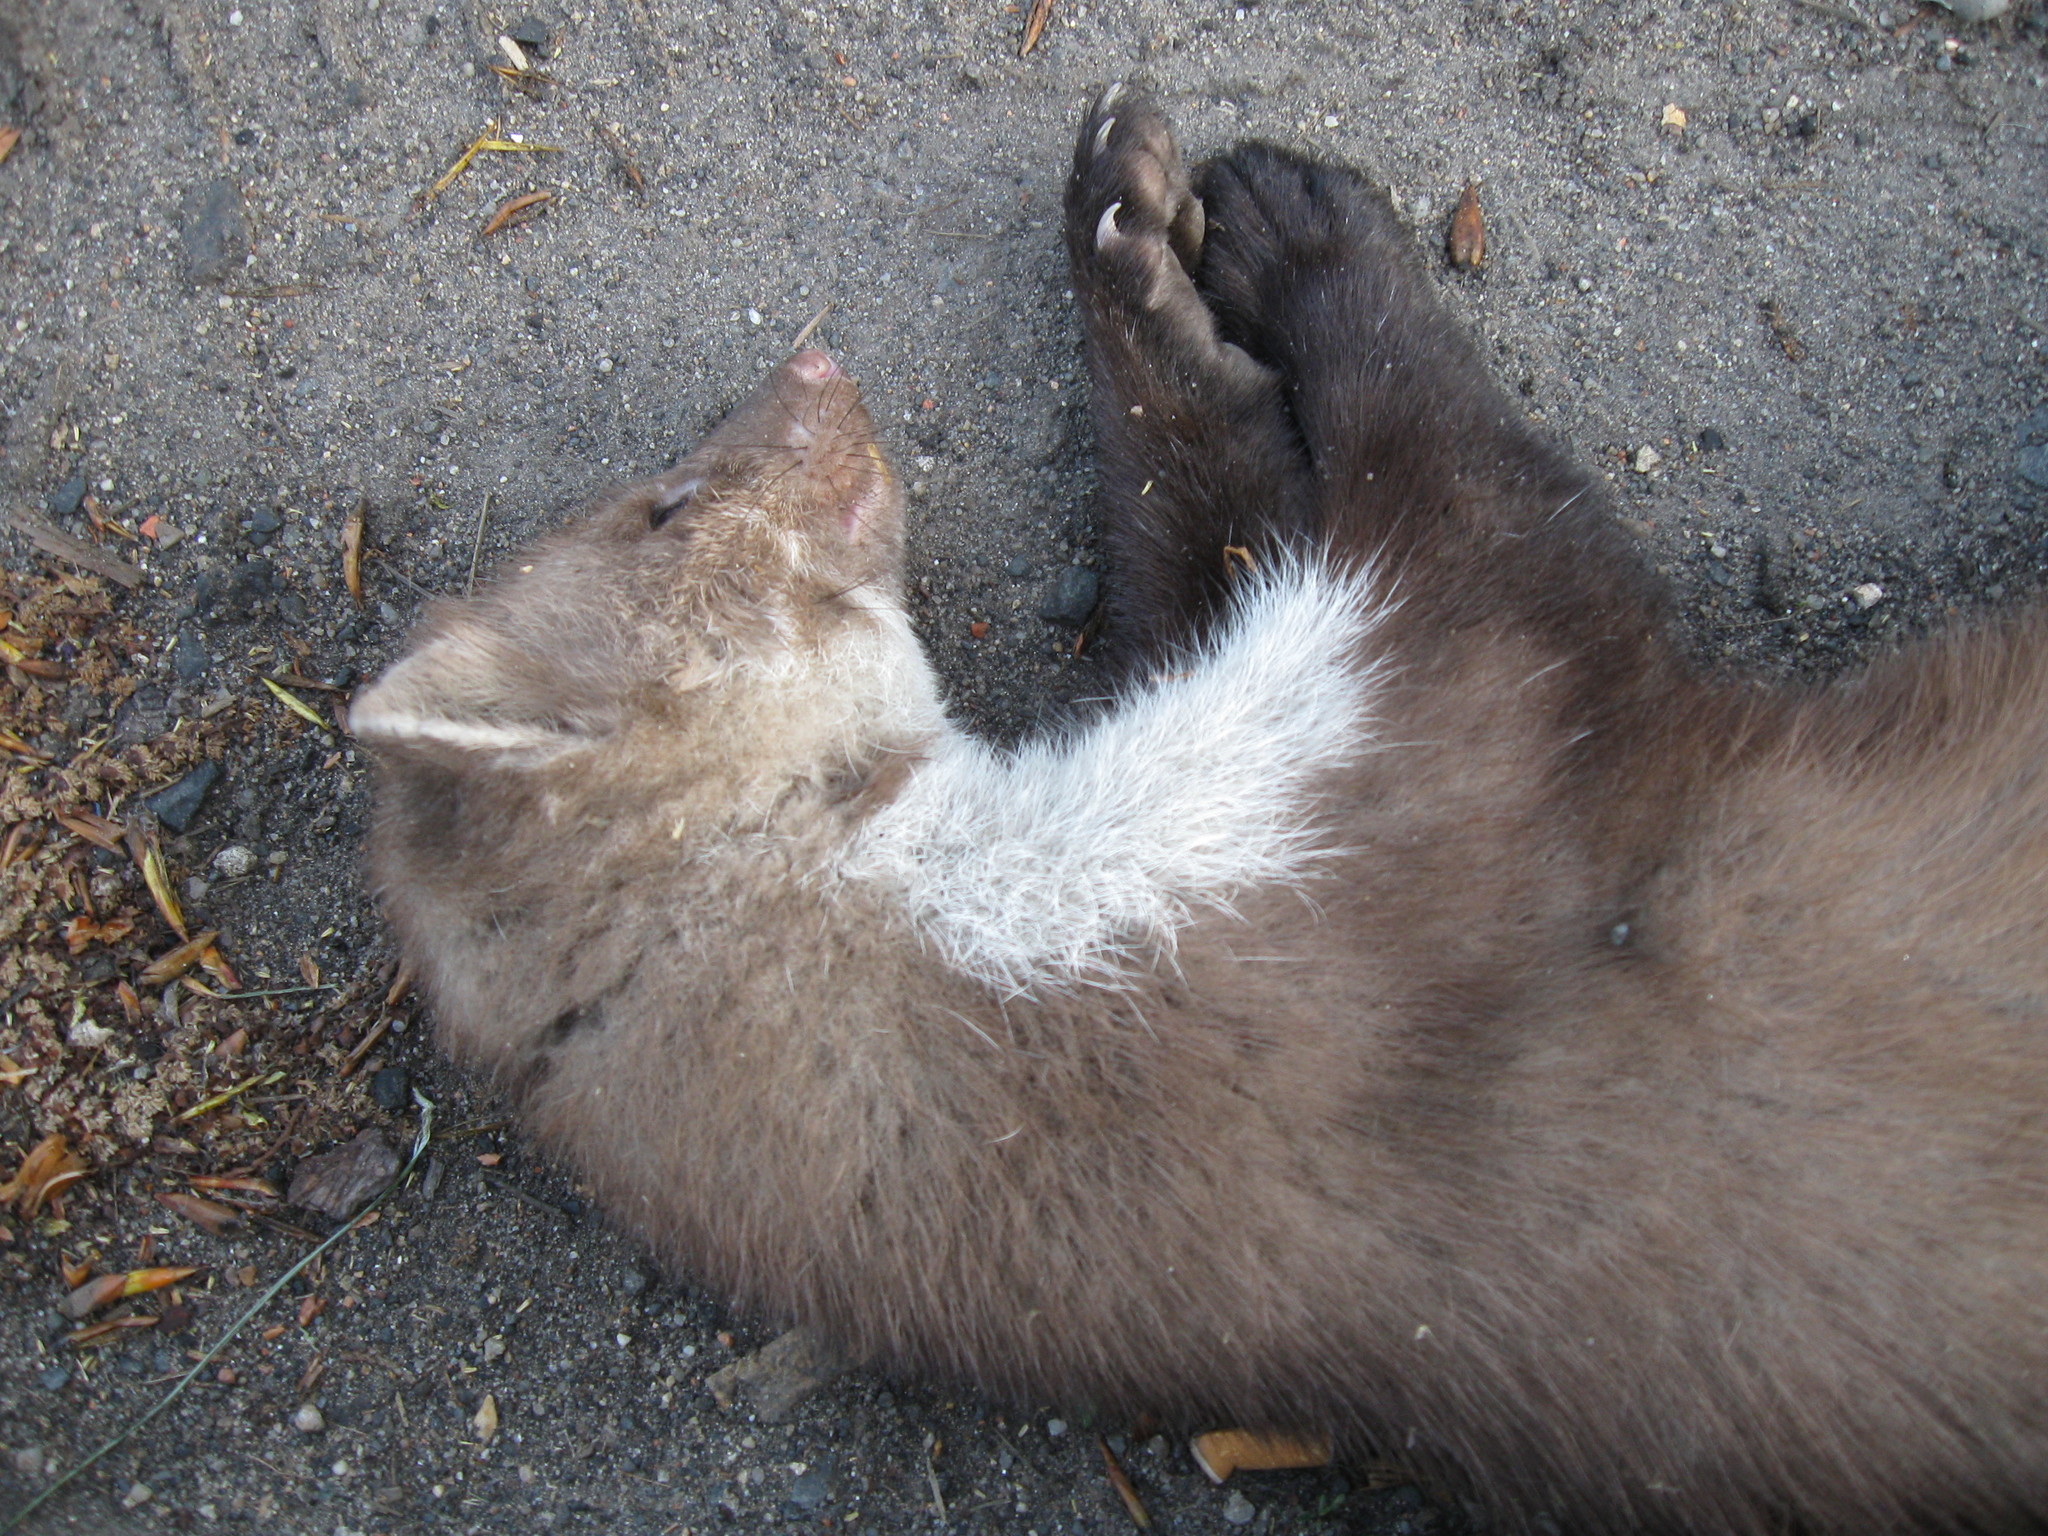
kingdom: Animalia
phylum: Chordata
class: Mammalia
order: Carnivora
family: Mustelidae
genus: Martes
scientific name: Martes foina
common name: Beech marten
